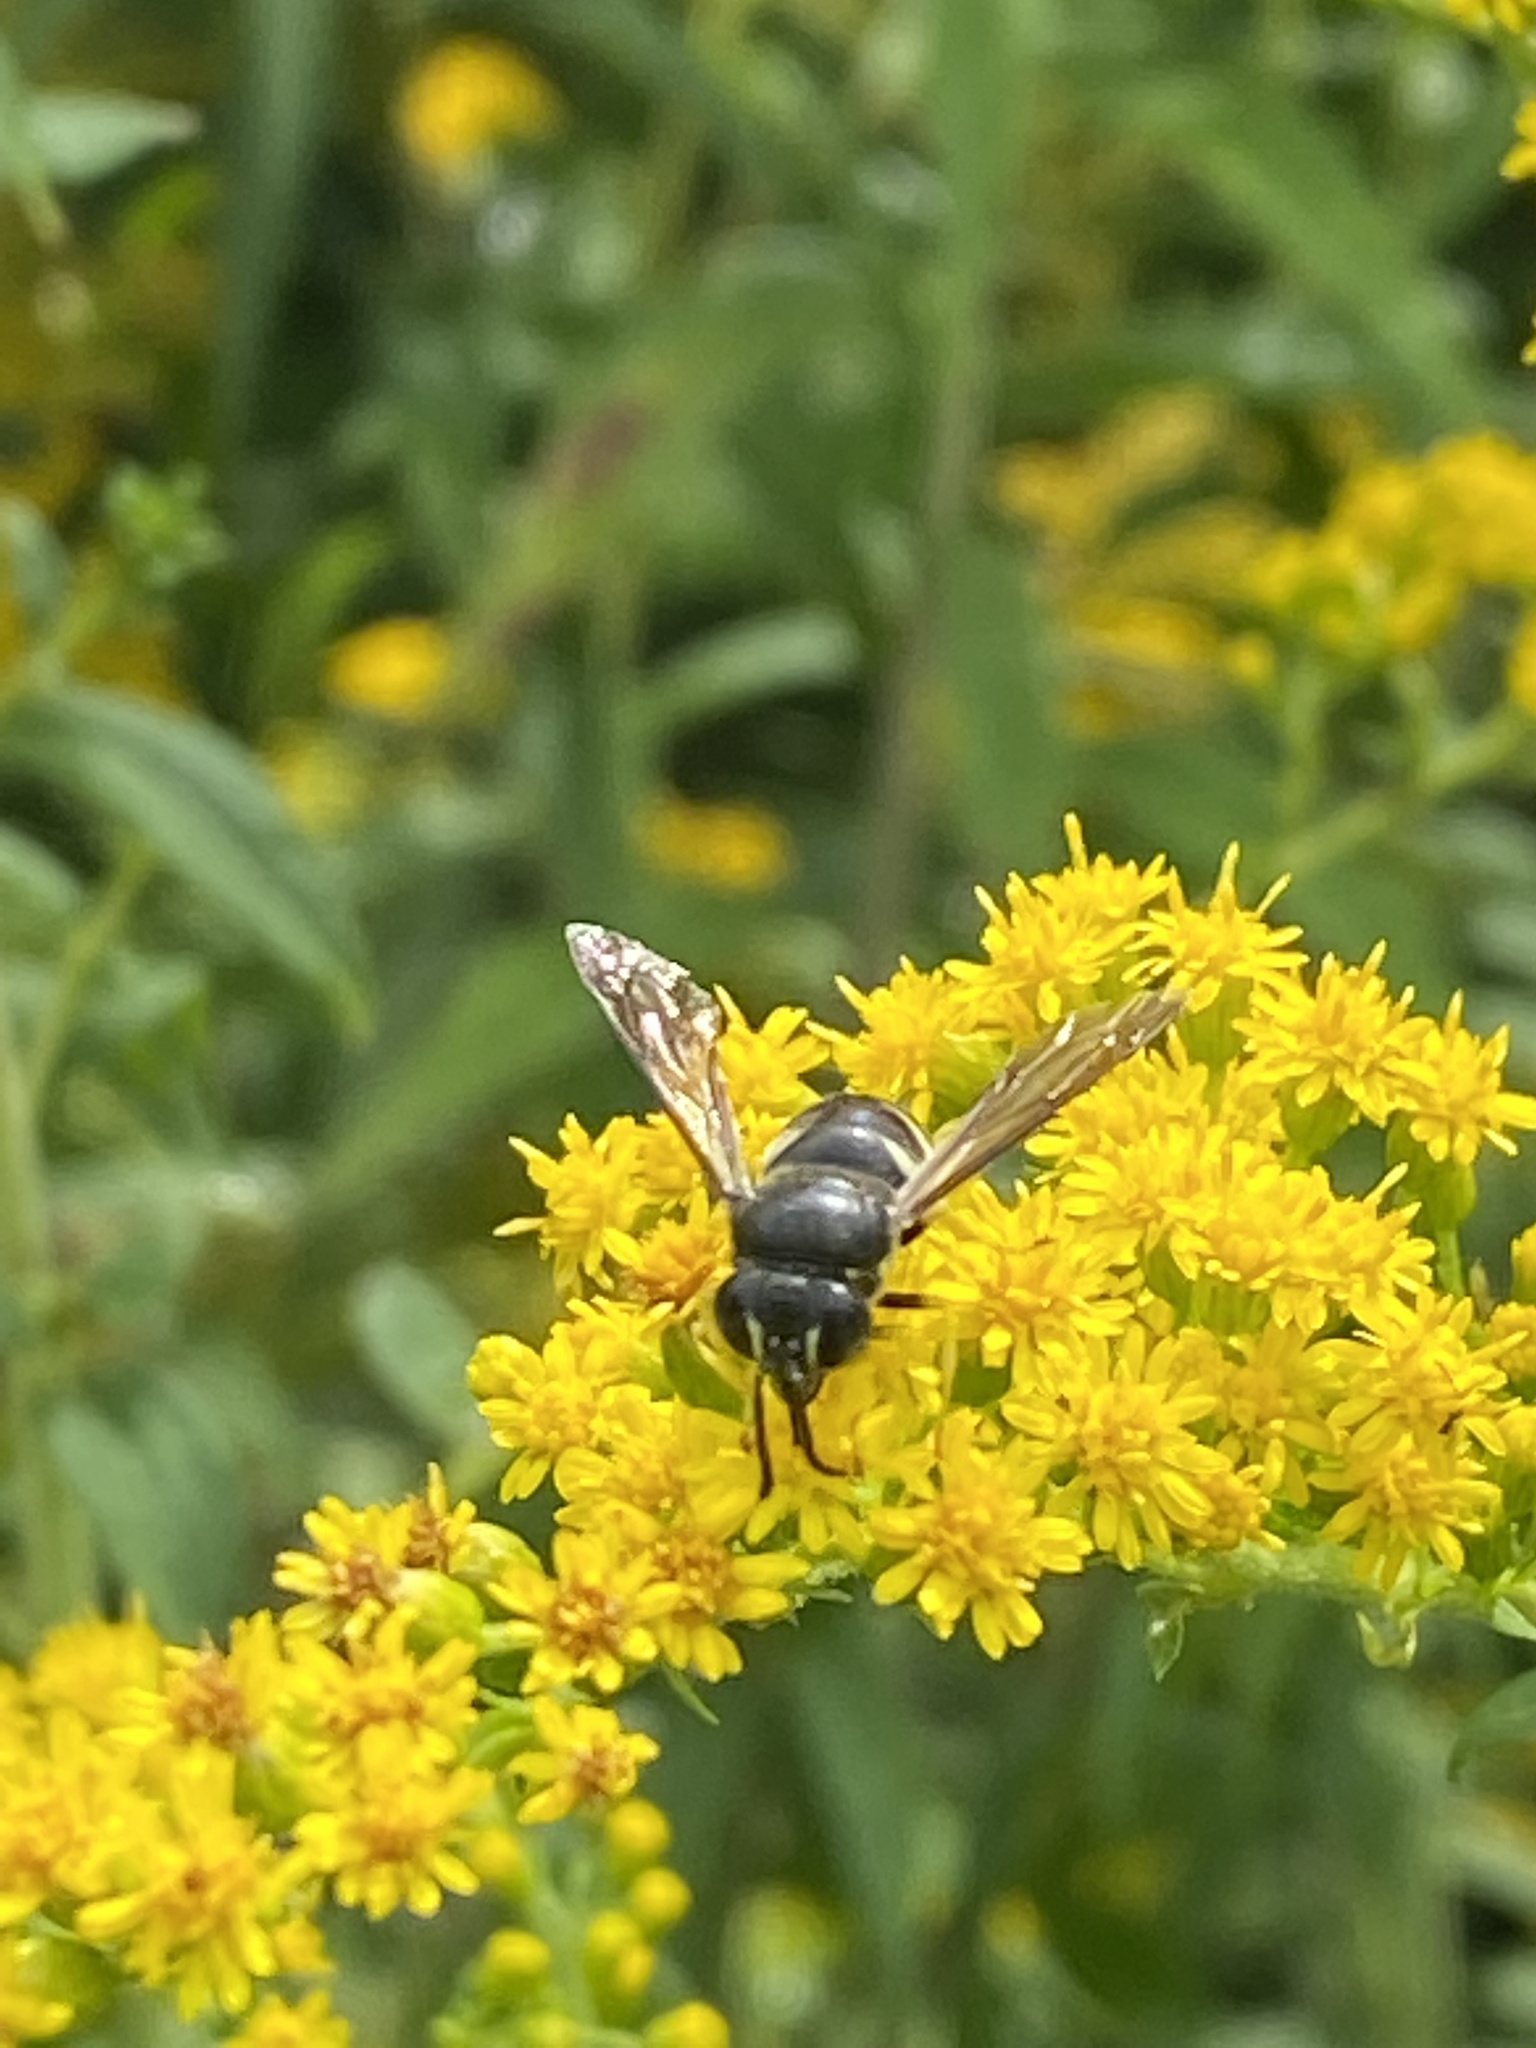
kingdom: Animalia
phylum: Arthropoda
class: Insecta
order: Hymenoptera
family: Crabronidae
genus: Bicyrtes
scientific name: Bicyrtes quadrifasciatus
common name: Four-banded stink bug hunter wasp
